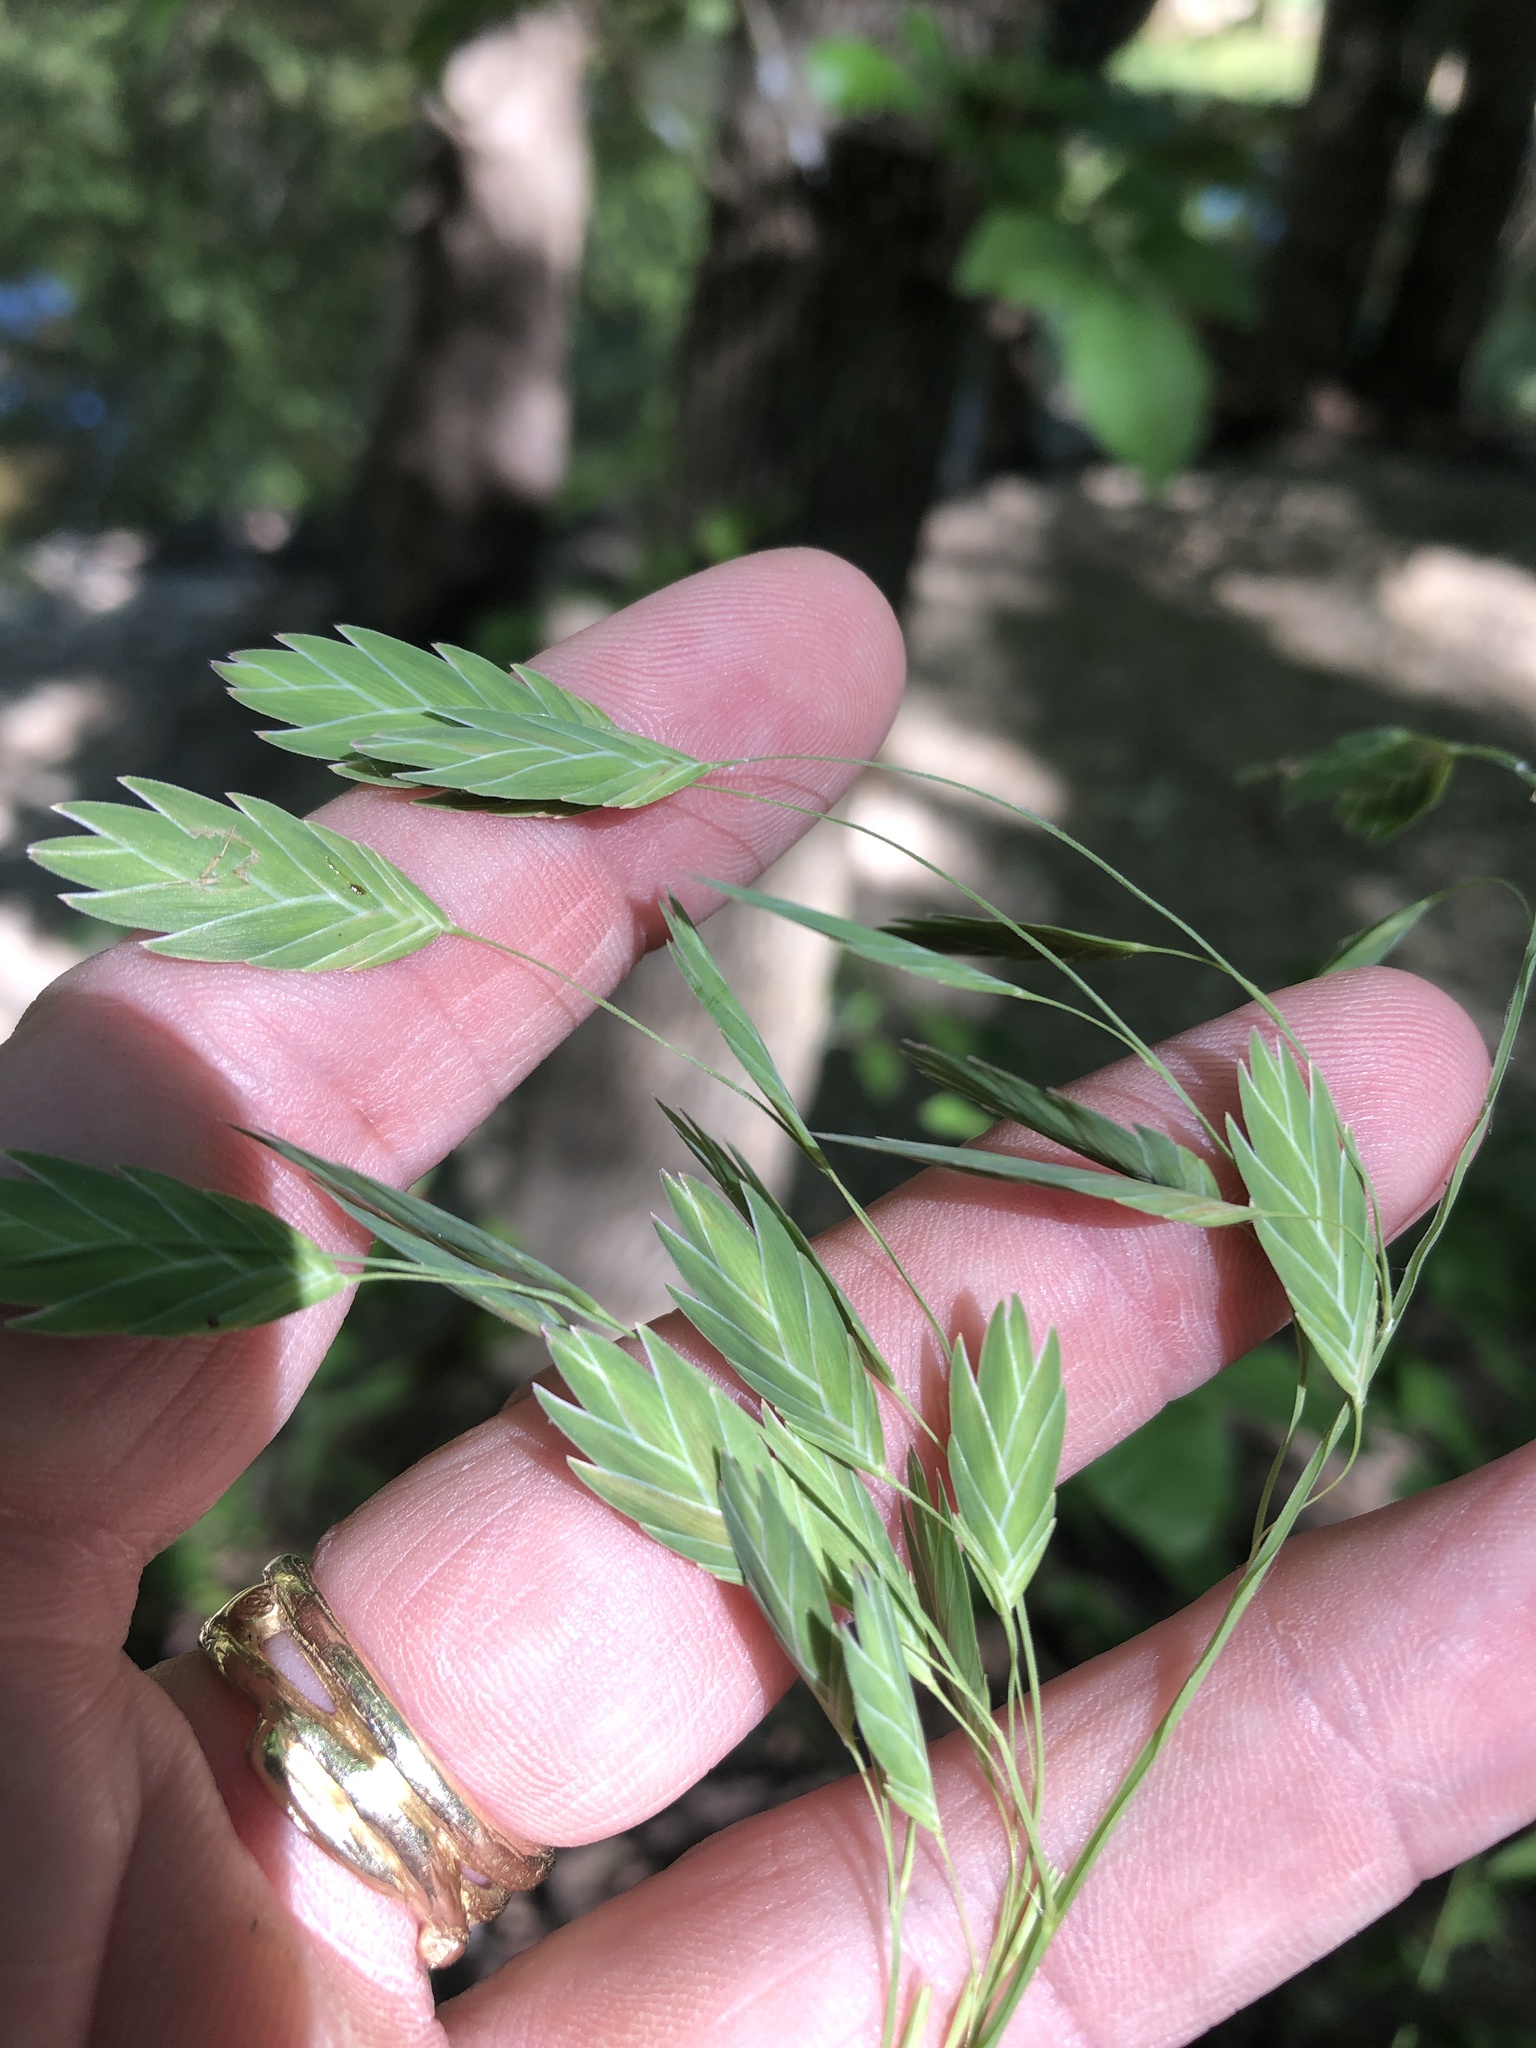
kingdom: Plantae
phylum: Tracheophyta
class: Liliopsida
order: Poales
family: Poaceae
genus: Chasmanthium
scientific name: Chasmanthium latifolium
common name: Broad-leaved chasmanthium
